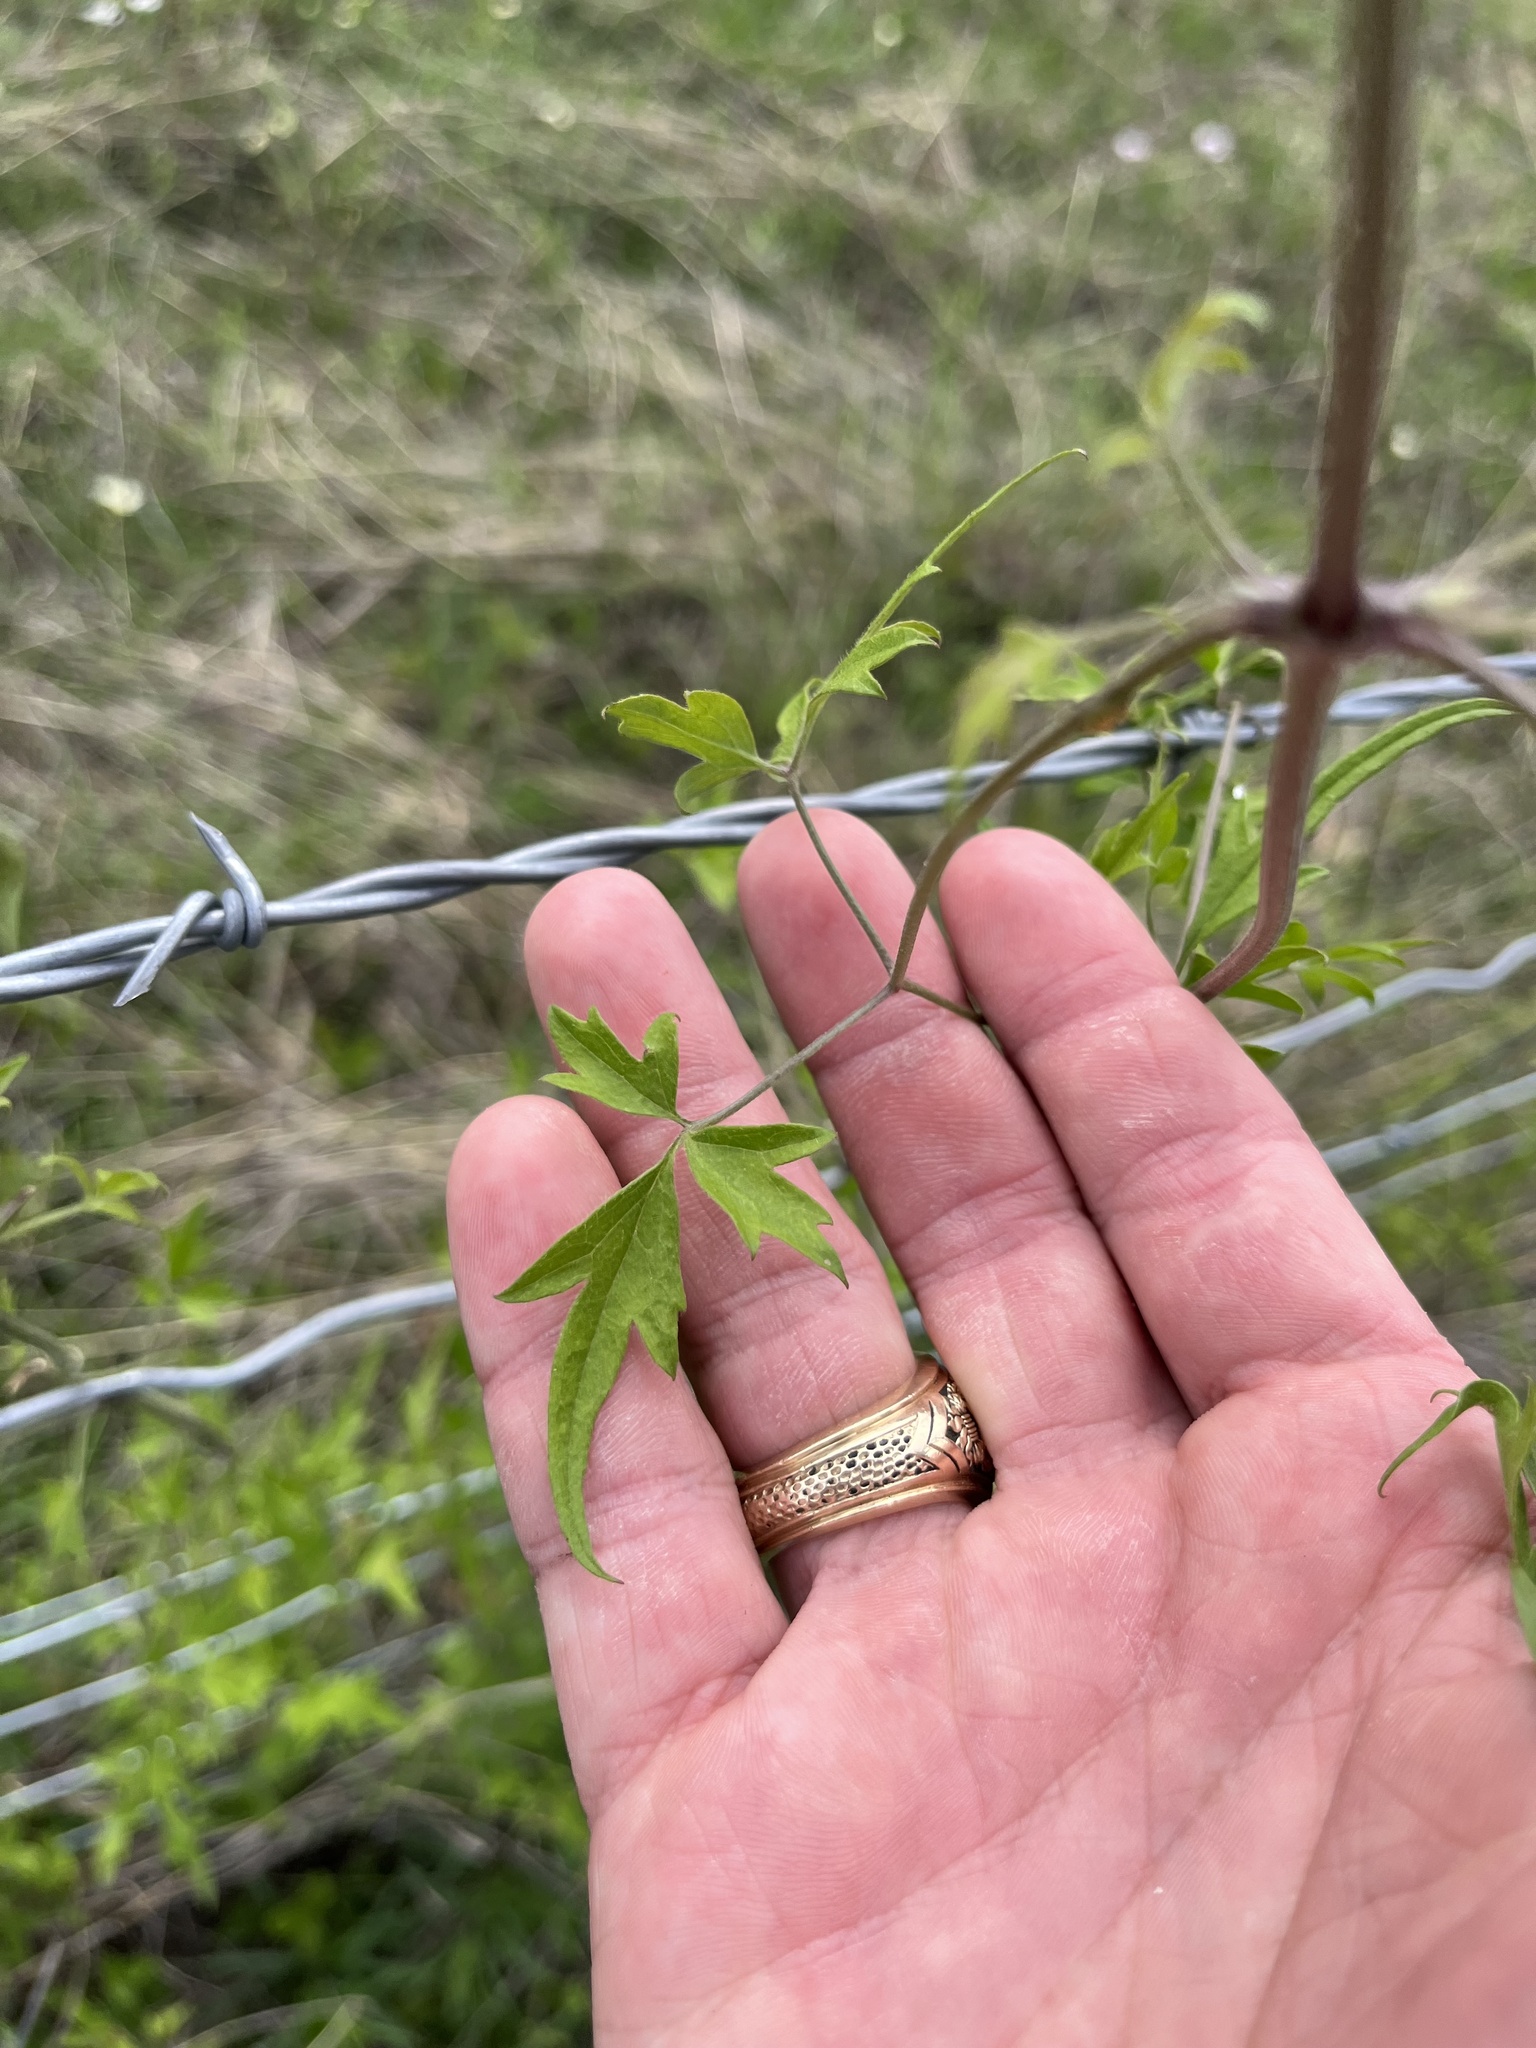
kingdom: Plantae
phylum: Tracheophyta
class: Magnoliopsida
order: Ranunculales
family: Ranunculaceae
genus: Clematis
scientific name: Clematis drummondii
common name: Texas virgin's bower
